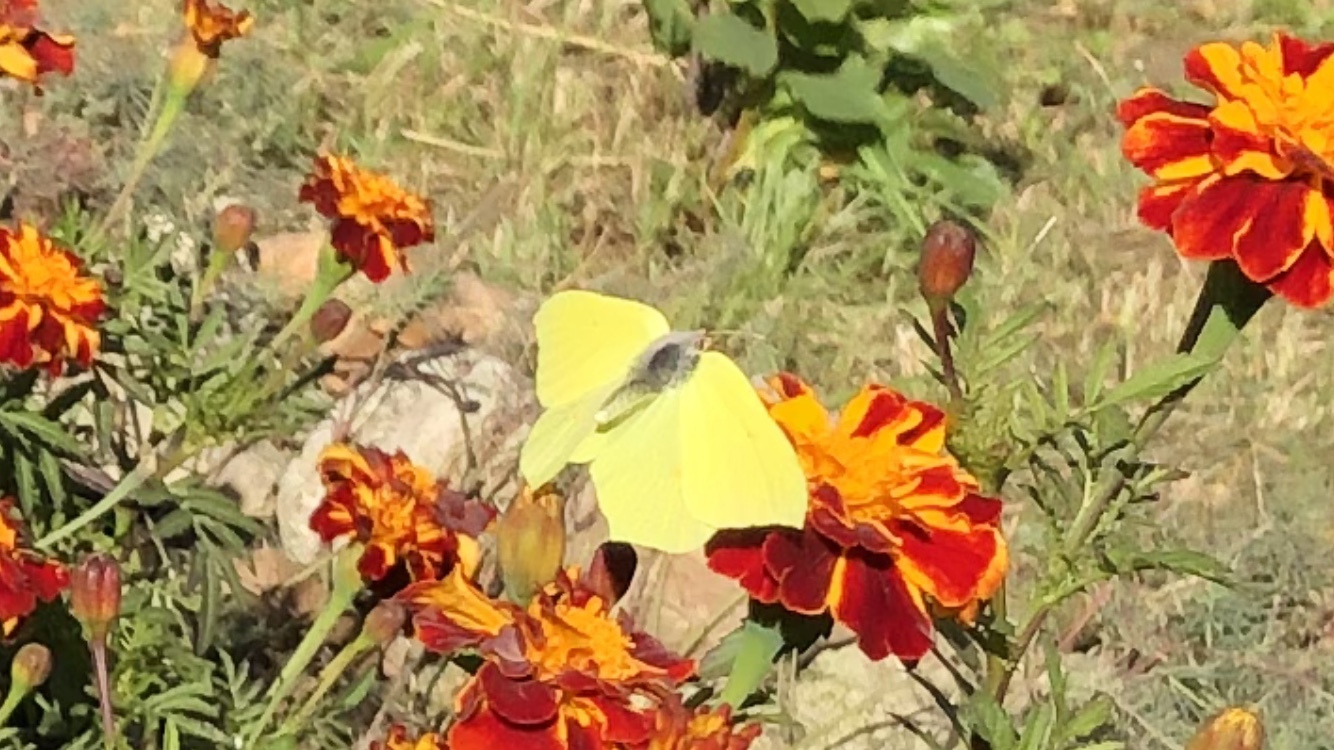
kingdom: Animalia
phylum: Arthropoda
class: Insecta
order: Lepidoptera
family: Pieridae
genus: Gonepteryx
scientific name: Gonepteryx rhamni
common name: Brimstone
